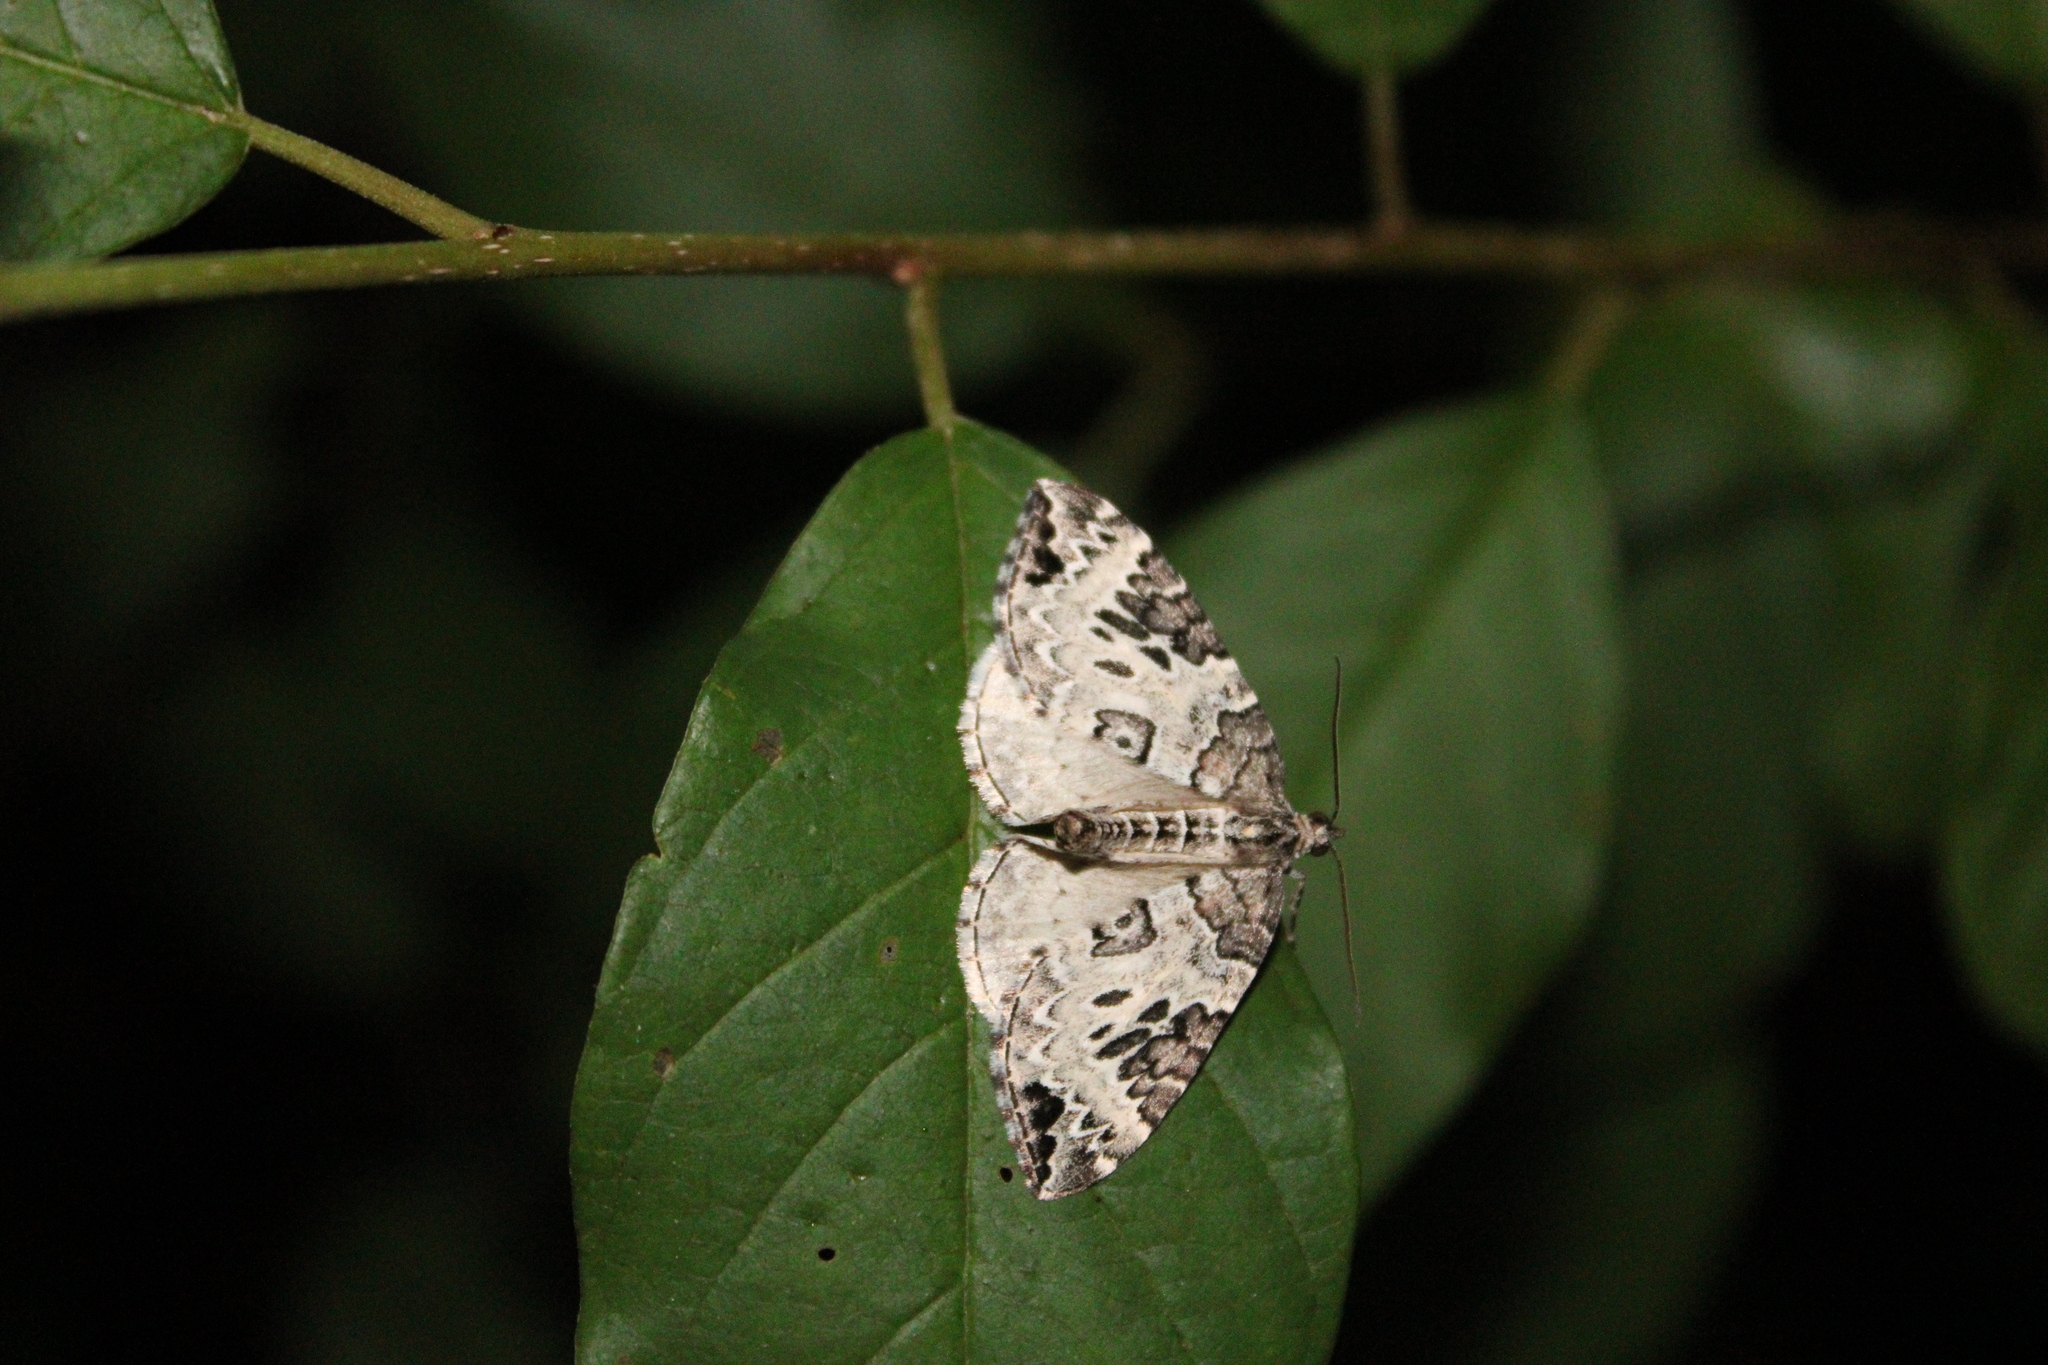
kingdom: Animalia
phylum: Arthropoda
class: Insecta
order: Lepidoptera
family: Geometridae
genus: Eulithis
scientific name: Eulithis explanata
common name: White eulithis
